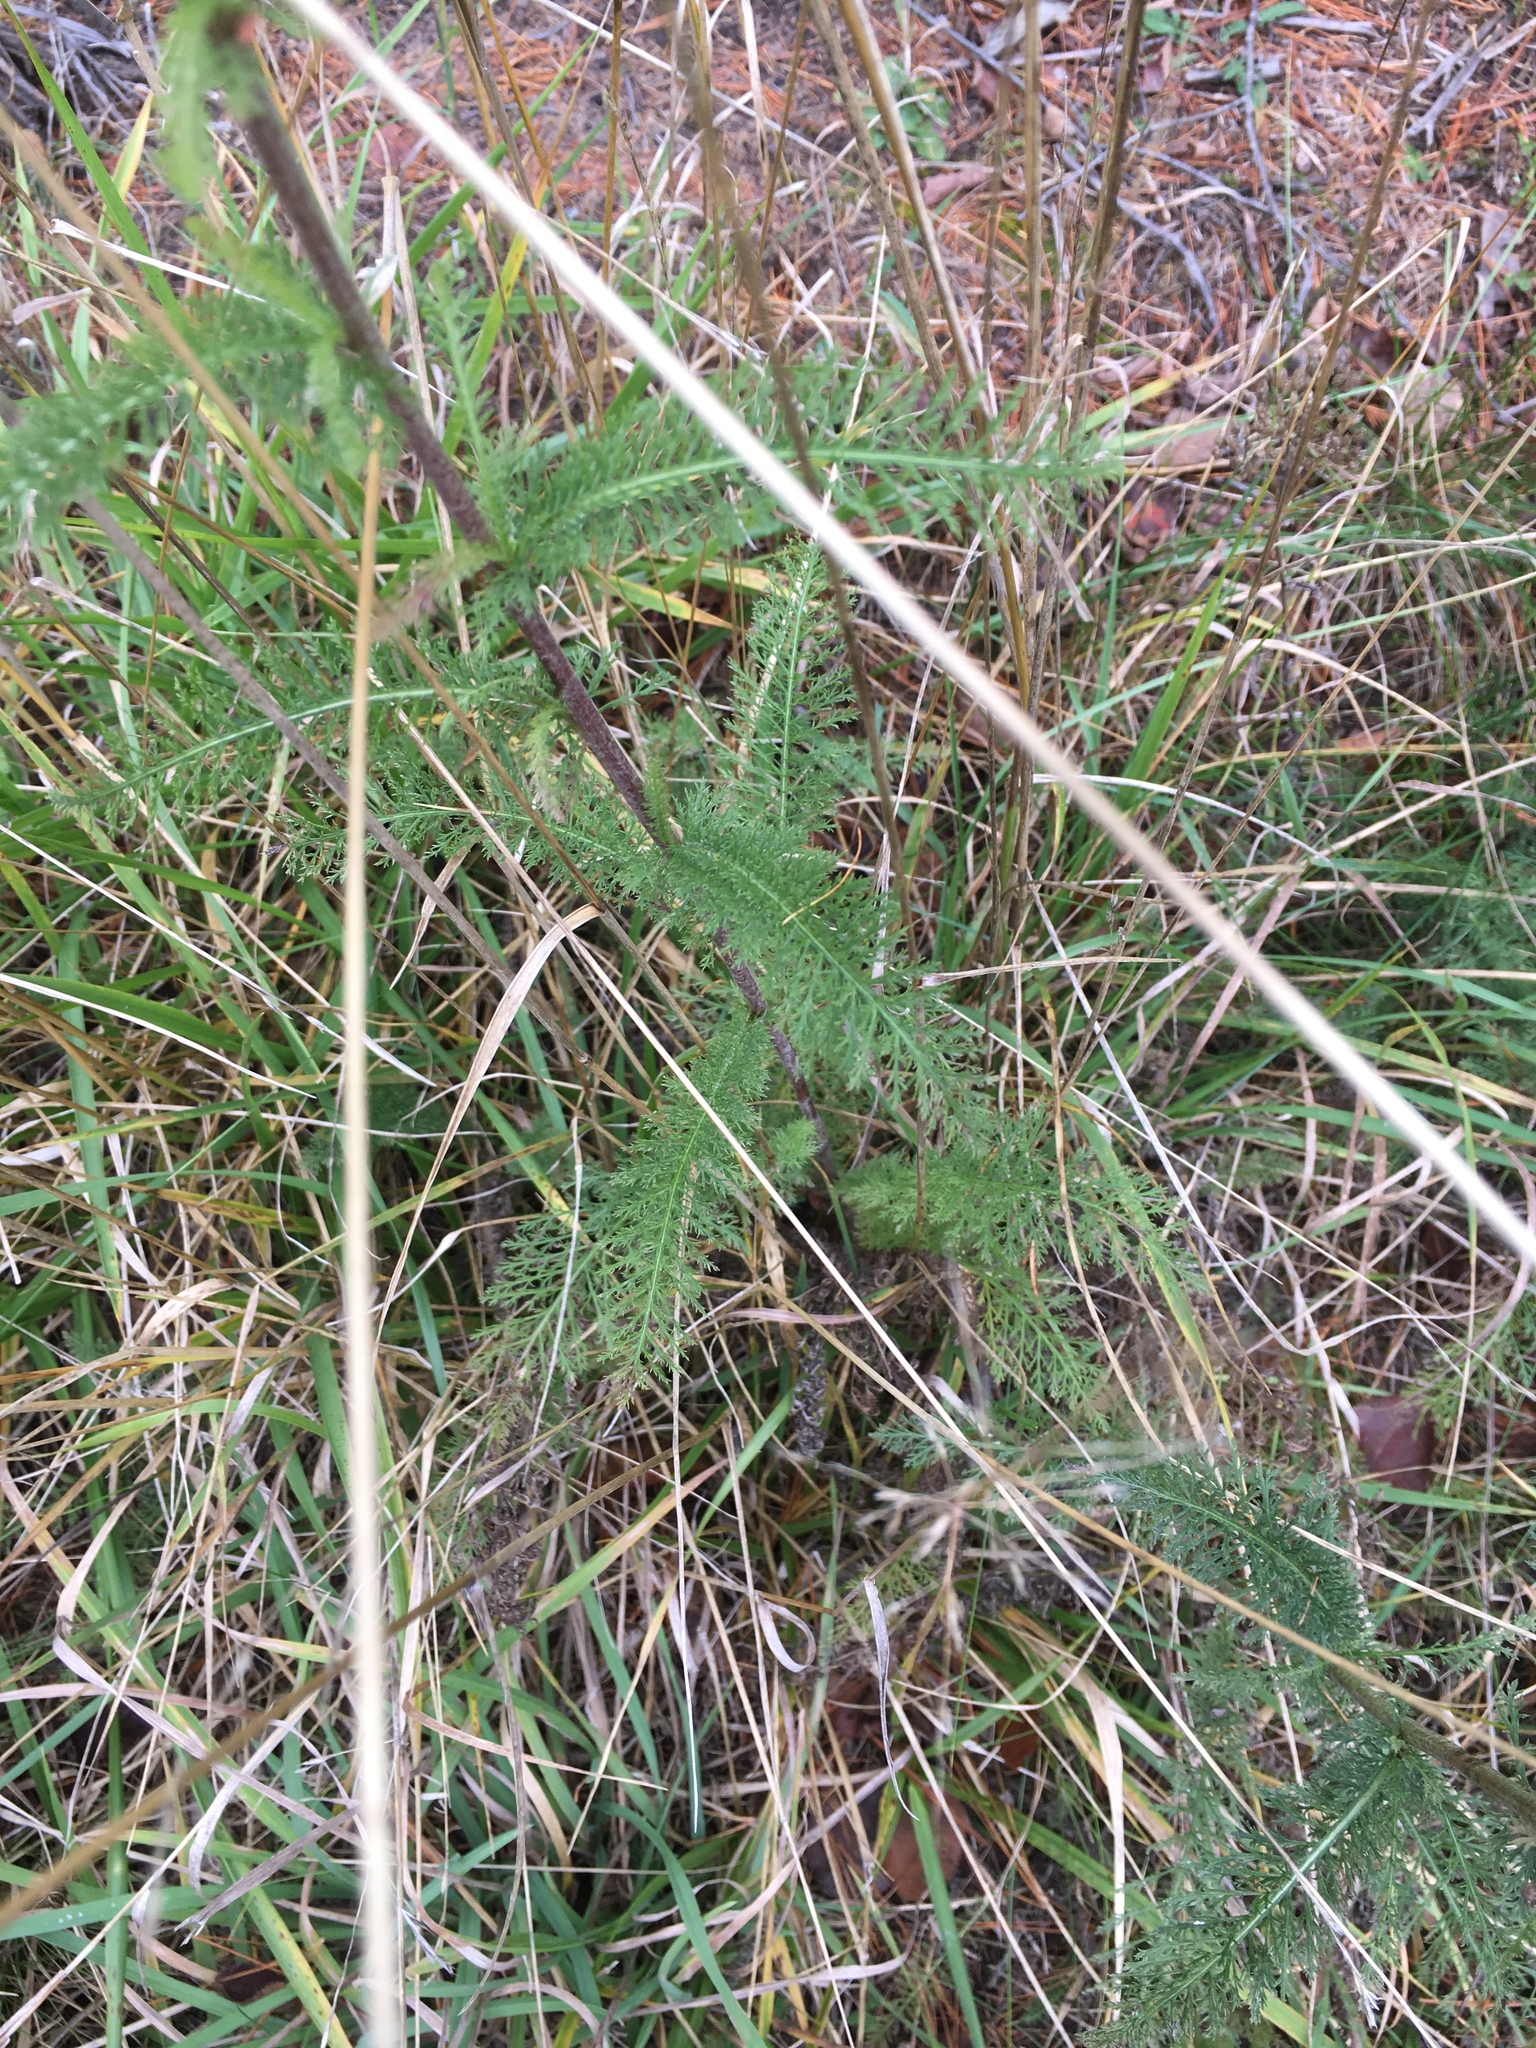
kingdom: Plantae
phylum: Tracheophyta
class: Magnoliopsida
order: Asterales
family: Asteraceae
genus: Achillea
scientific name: Achillea millefolium
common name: Yarrow
